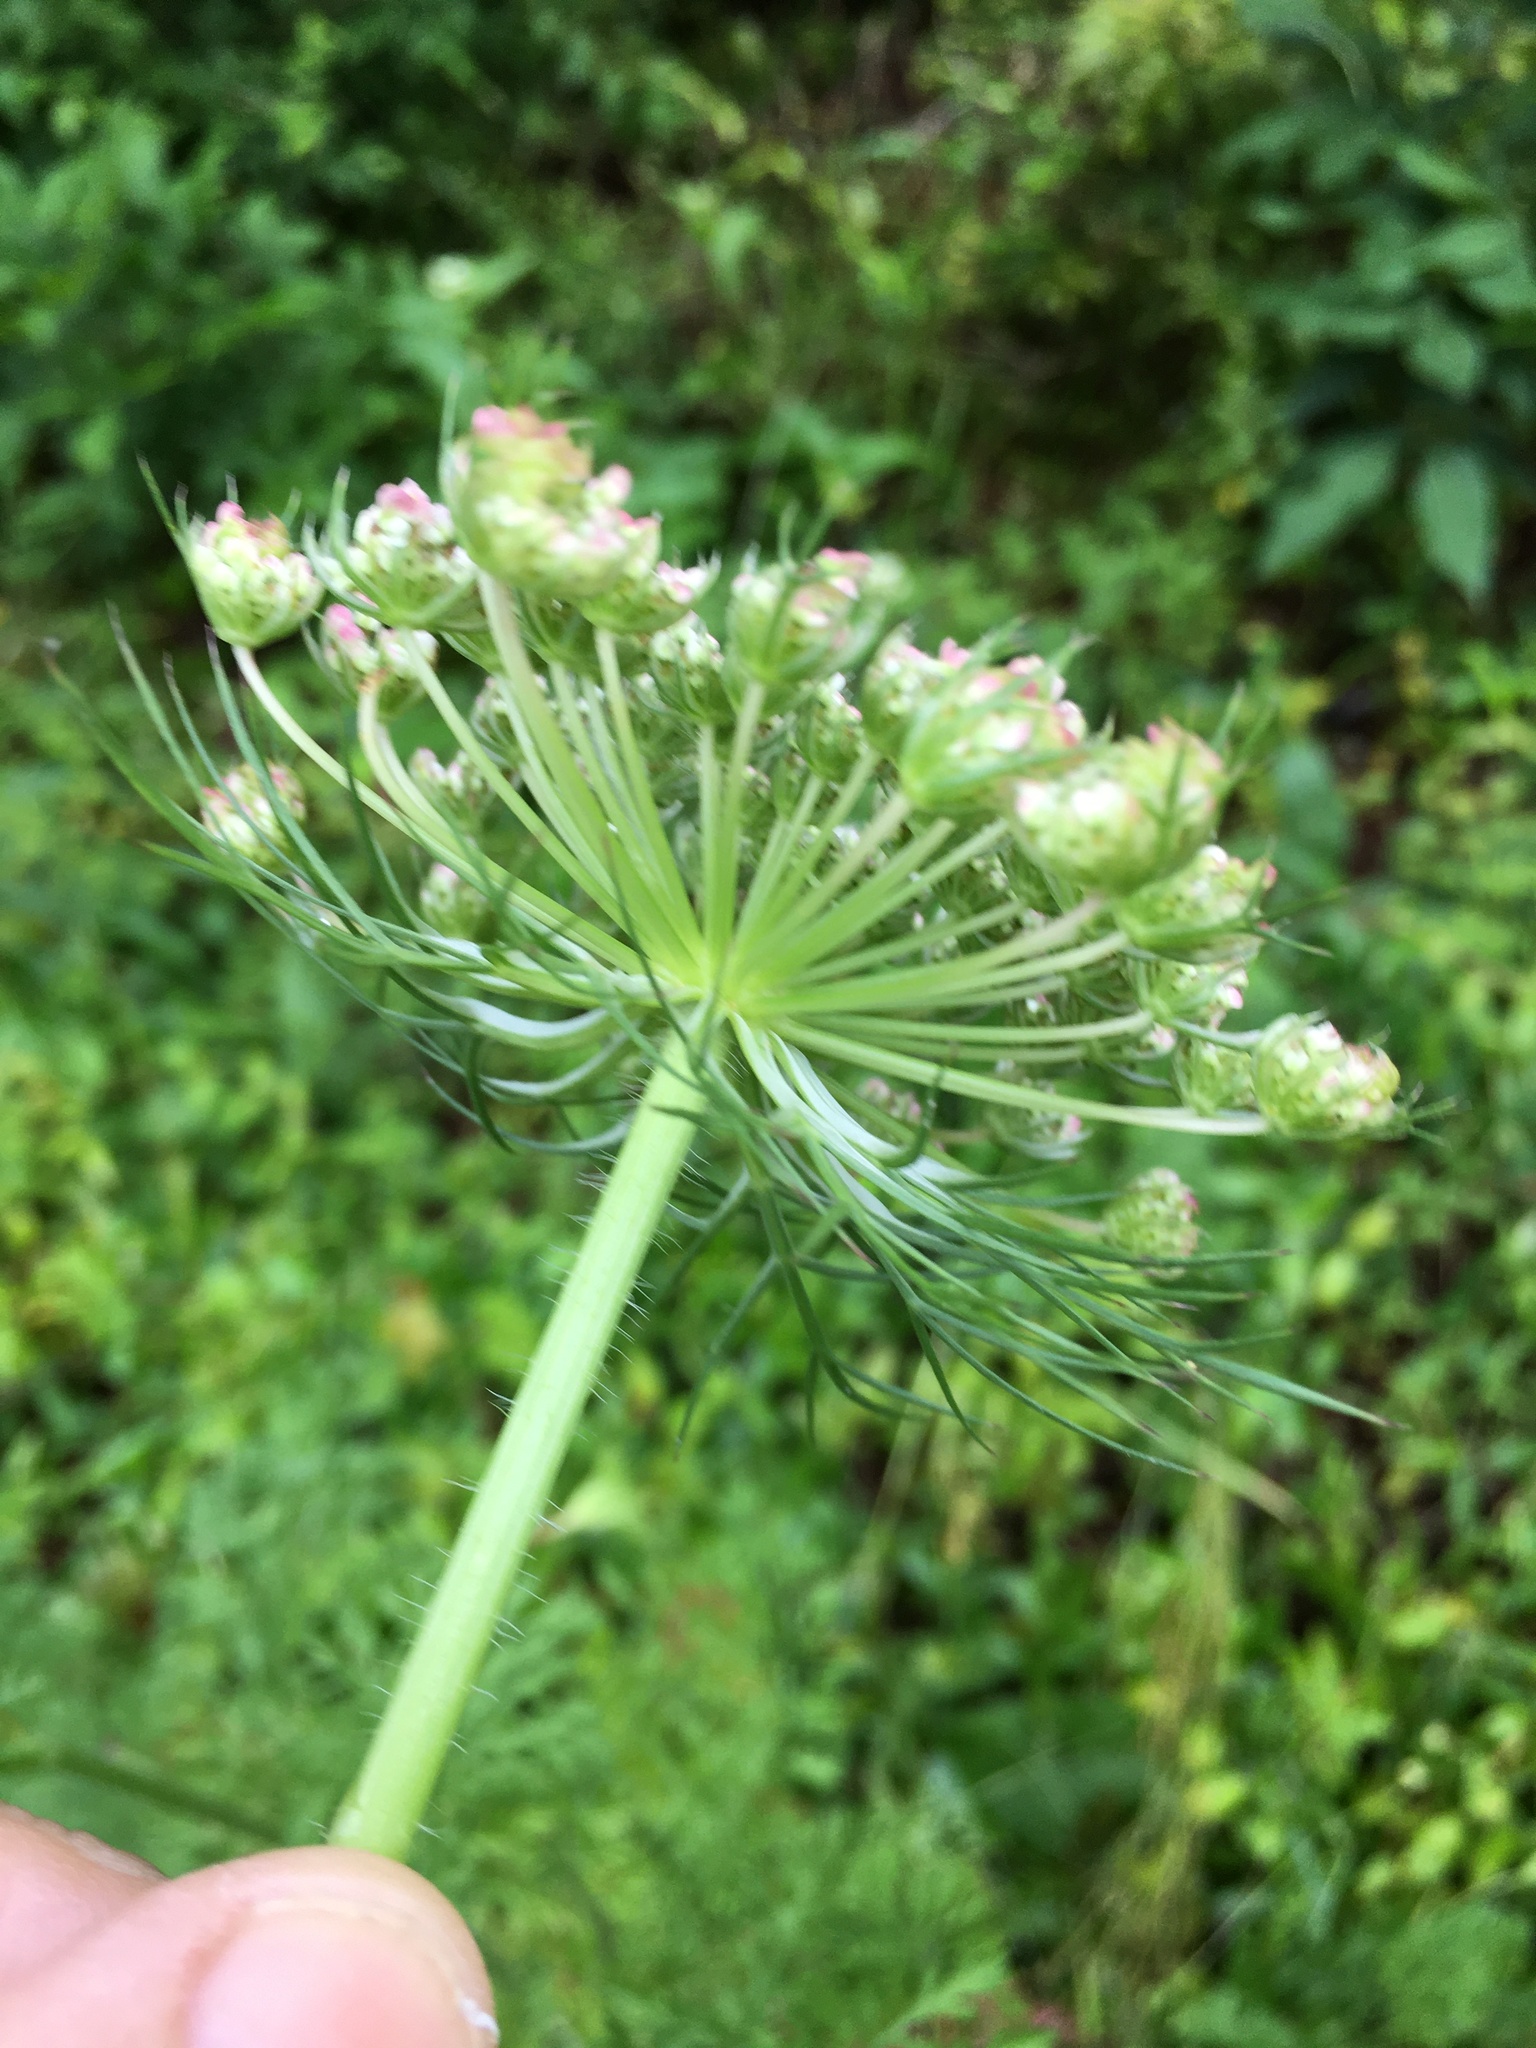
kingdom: Plantae
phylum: Tracheophyta
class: Magnoliopsida
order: Apiales
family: Apiaceae
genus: Daucus
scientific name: Daucus carota
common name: Wild carrot
